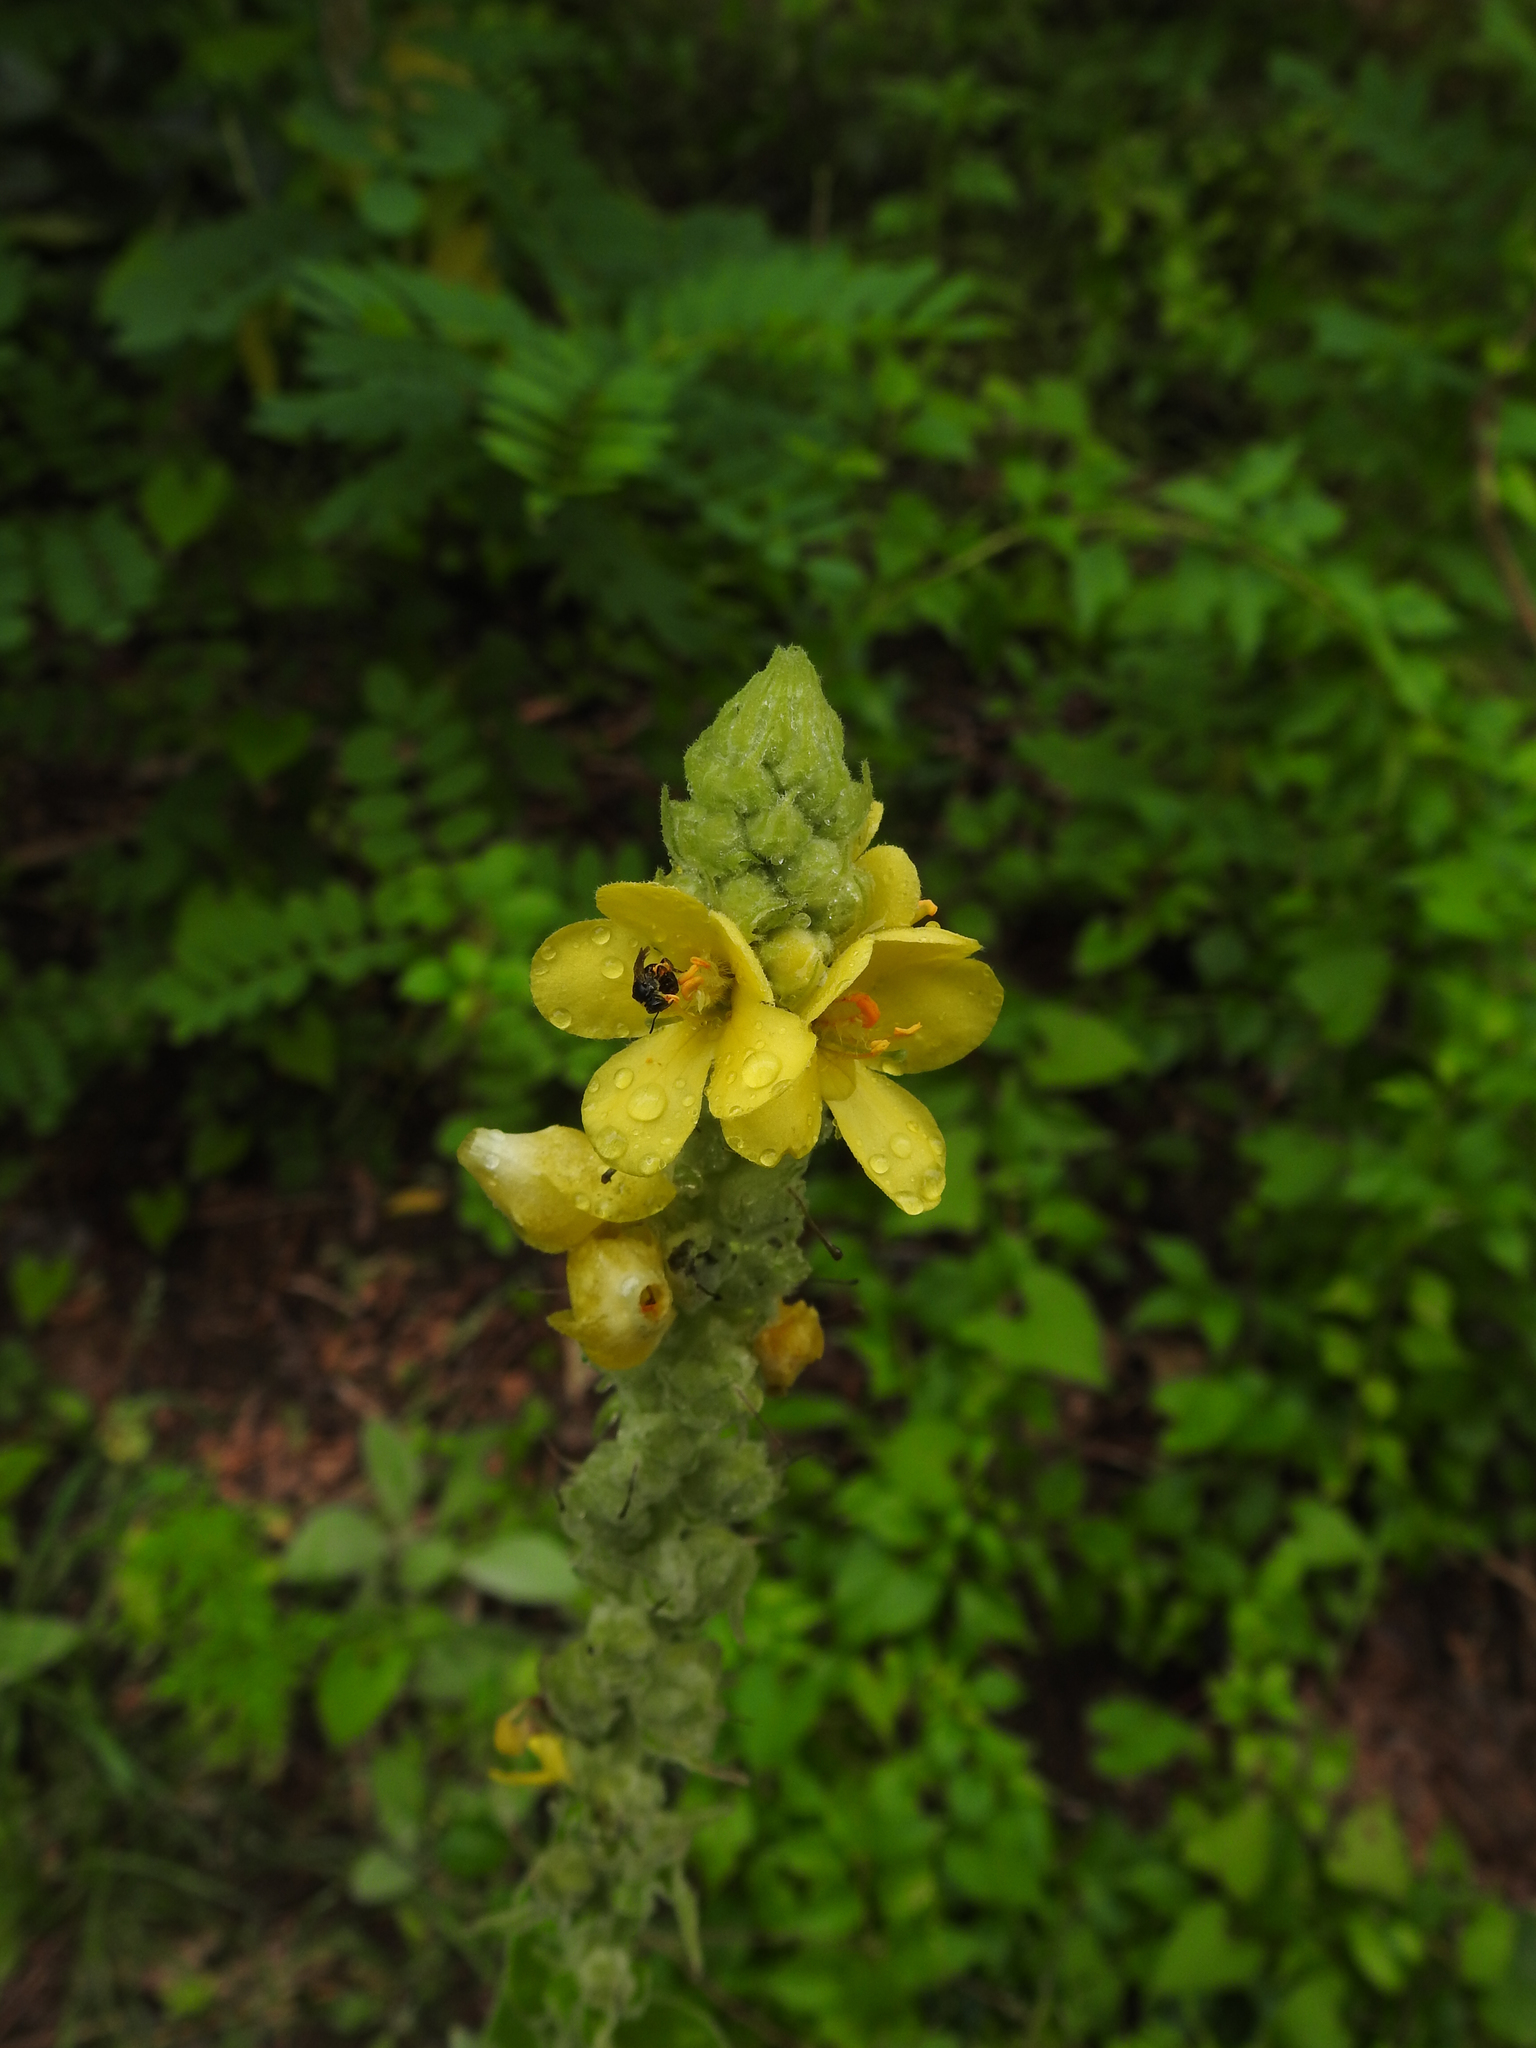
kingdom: Plantae
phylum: Tracheophyta
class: Magnoliopsida
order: Lamiales
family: Scrophulariaceae
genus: Verbascum
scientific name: Verbascum thapsus
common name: Common mullein
